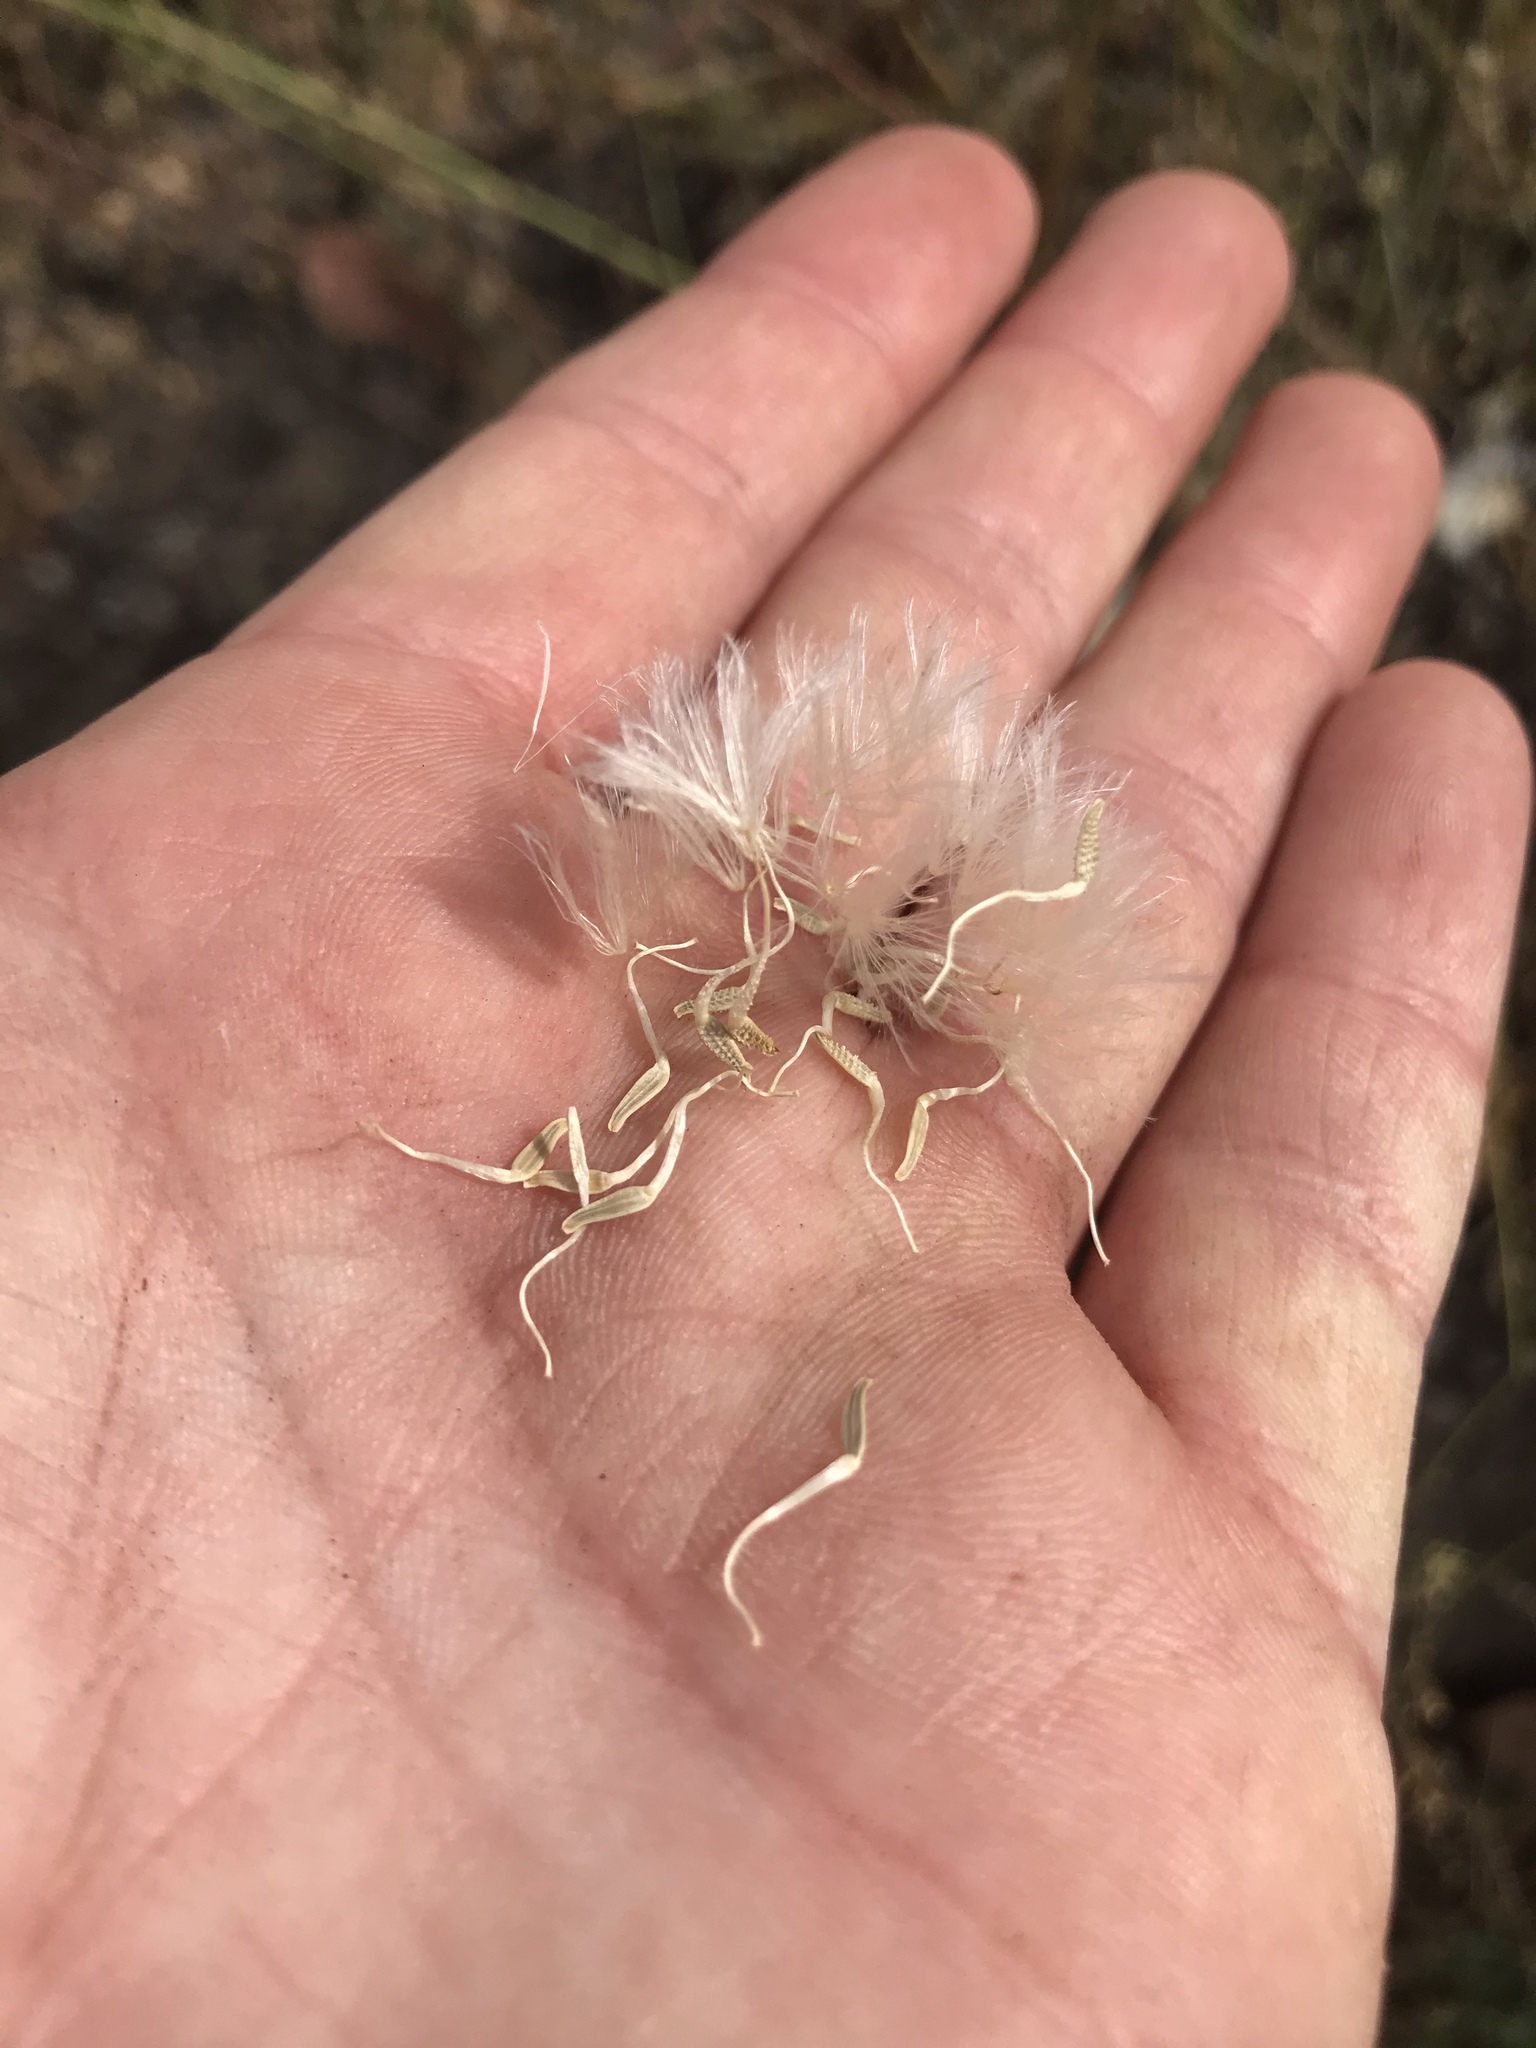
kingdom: Plantae
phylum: Tracheophyta
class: Magnoliopsida
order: Asterales
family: Asteraceae
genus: Urospermum
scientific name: Urospermum picroides
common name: False hawkbit
